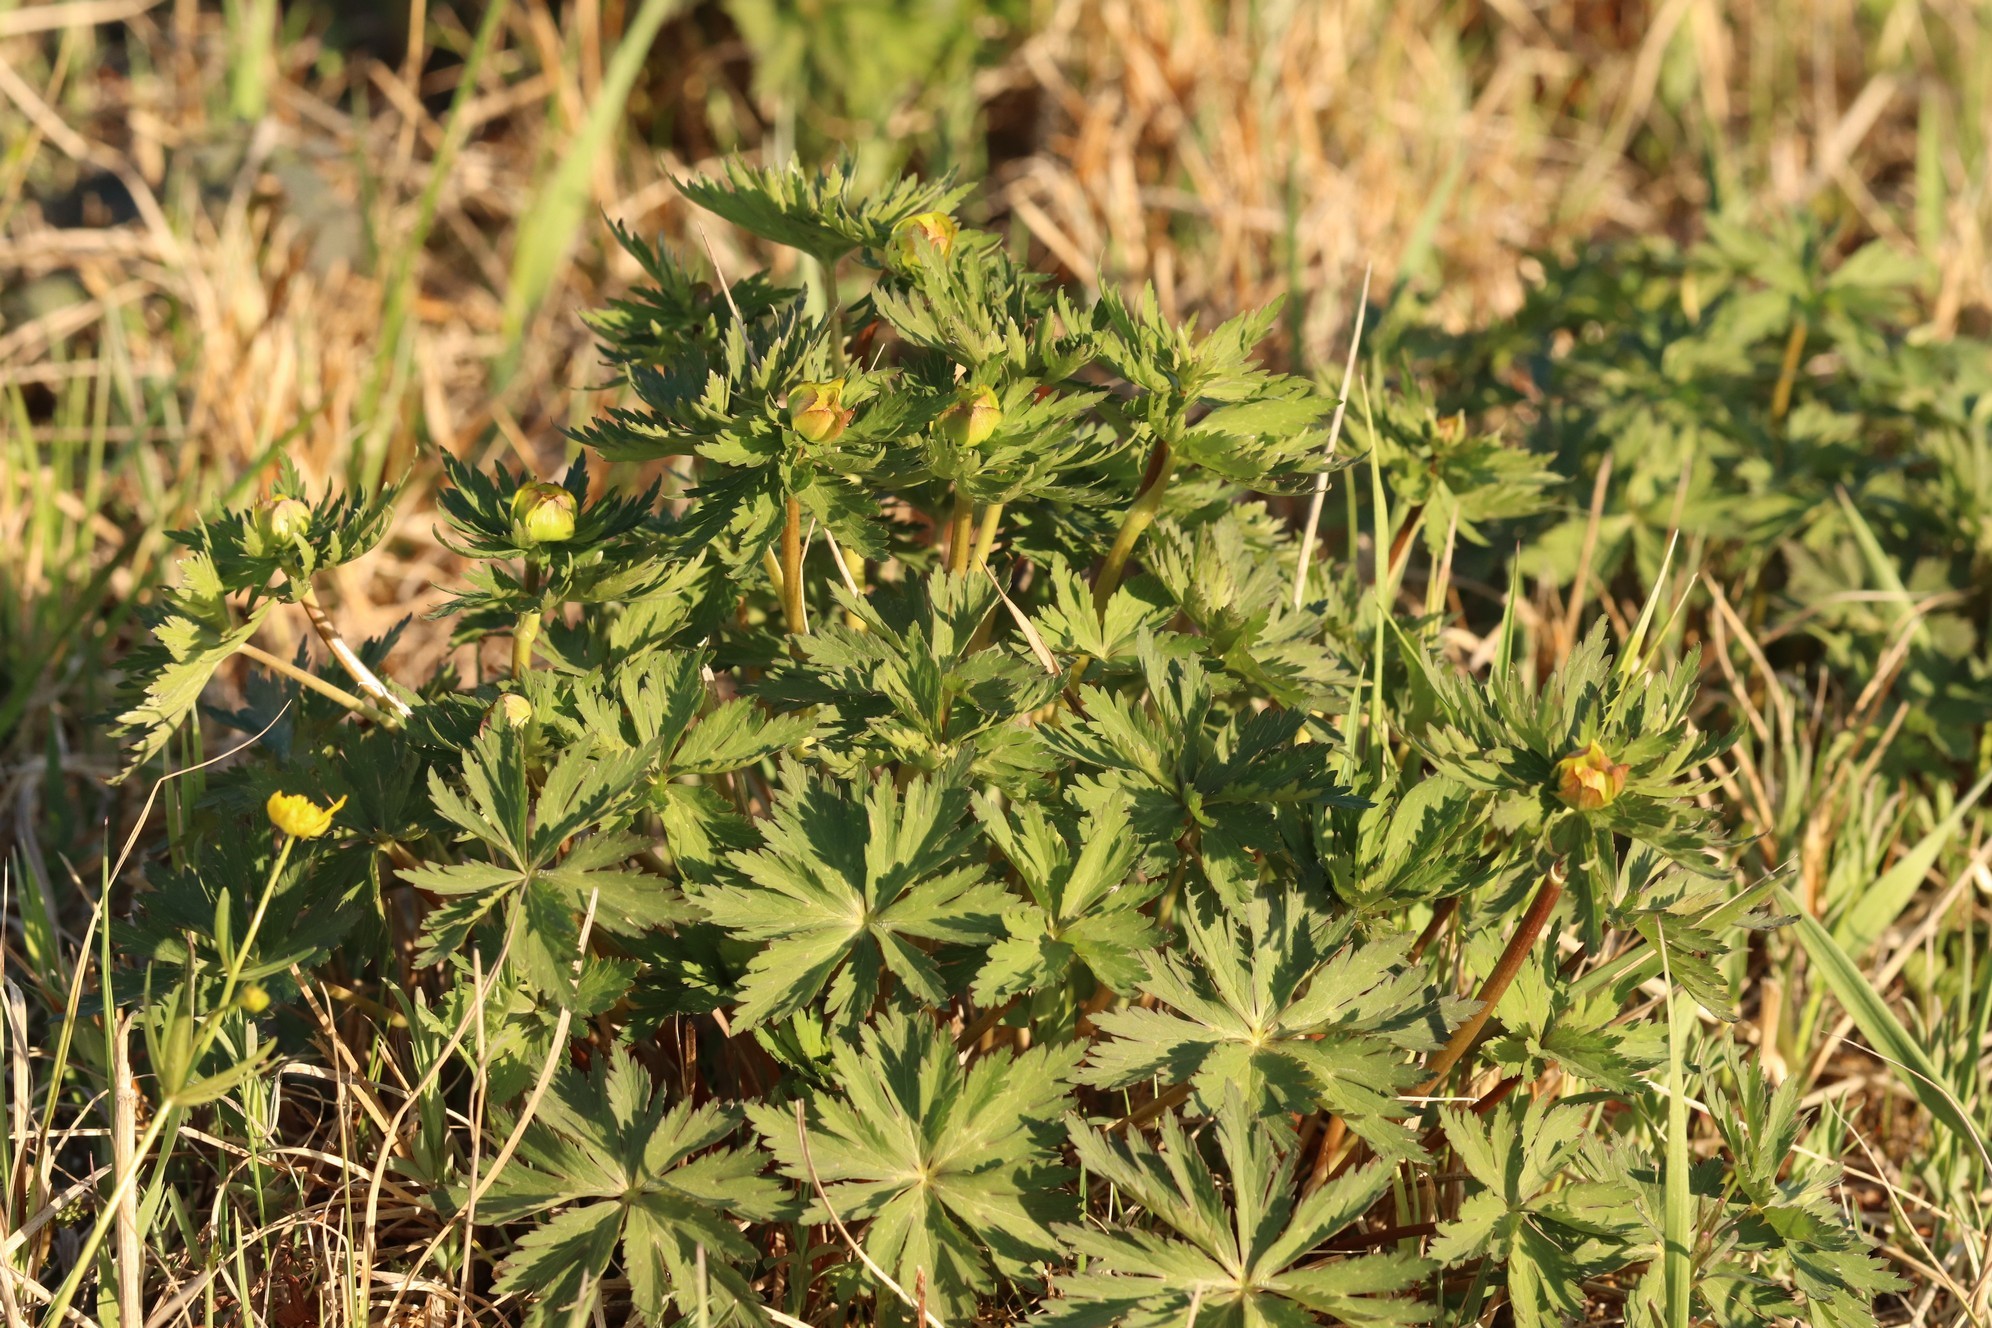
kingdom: Plantae
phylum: Tracheophyta
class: Magnoliopsida
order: Ranunculales
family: Ranunculaceae
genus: Trollius
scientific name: Trollius asiaticus
